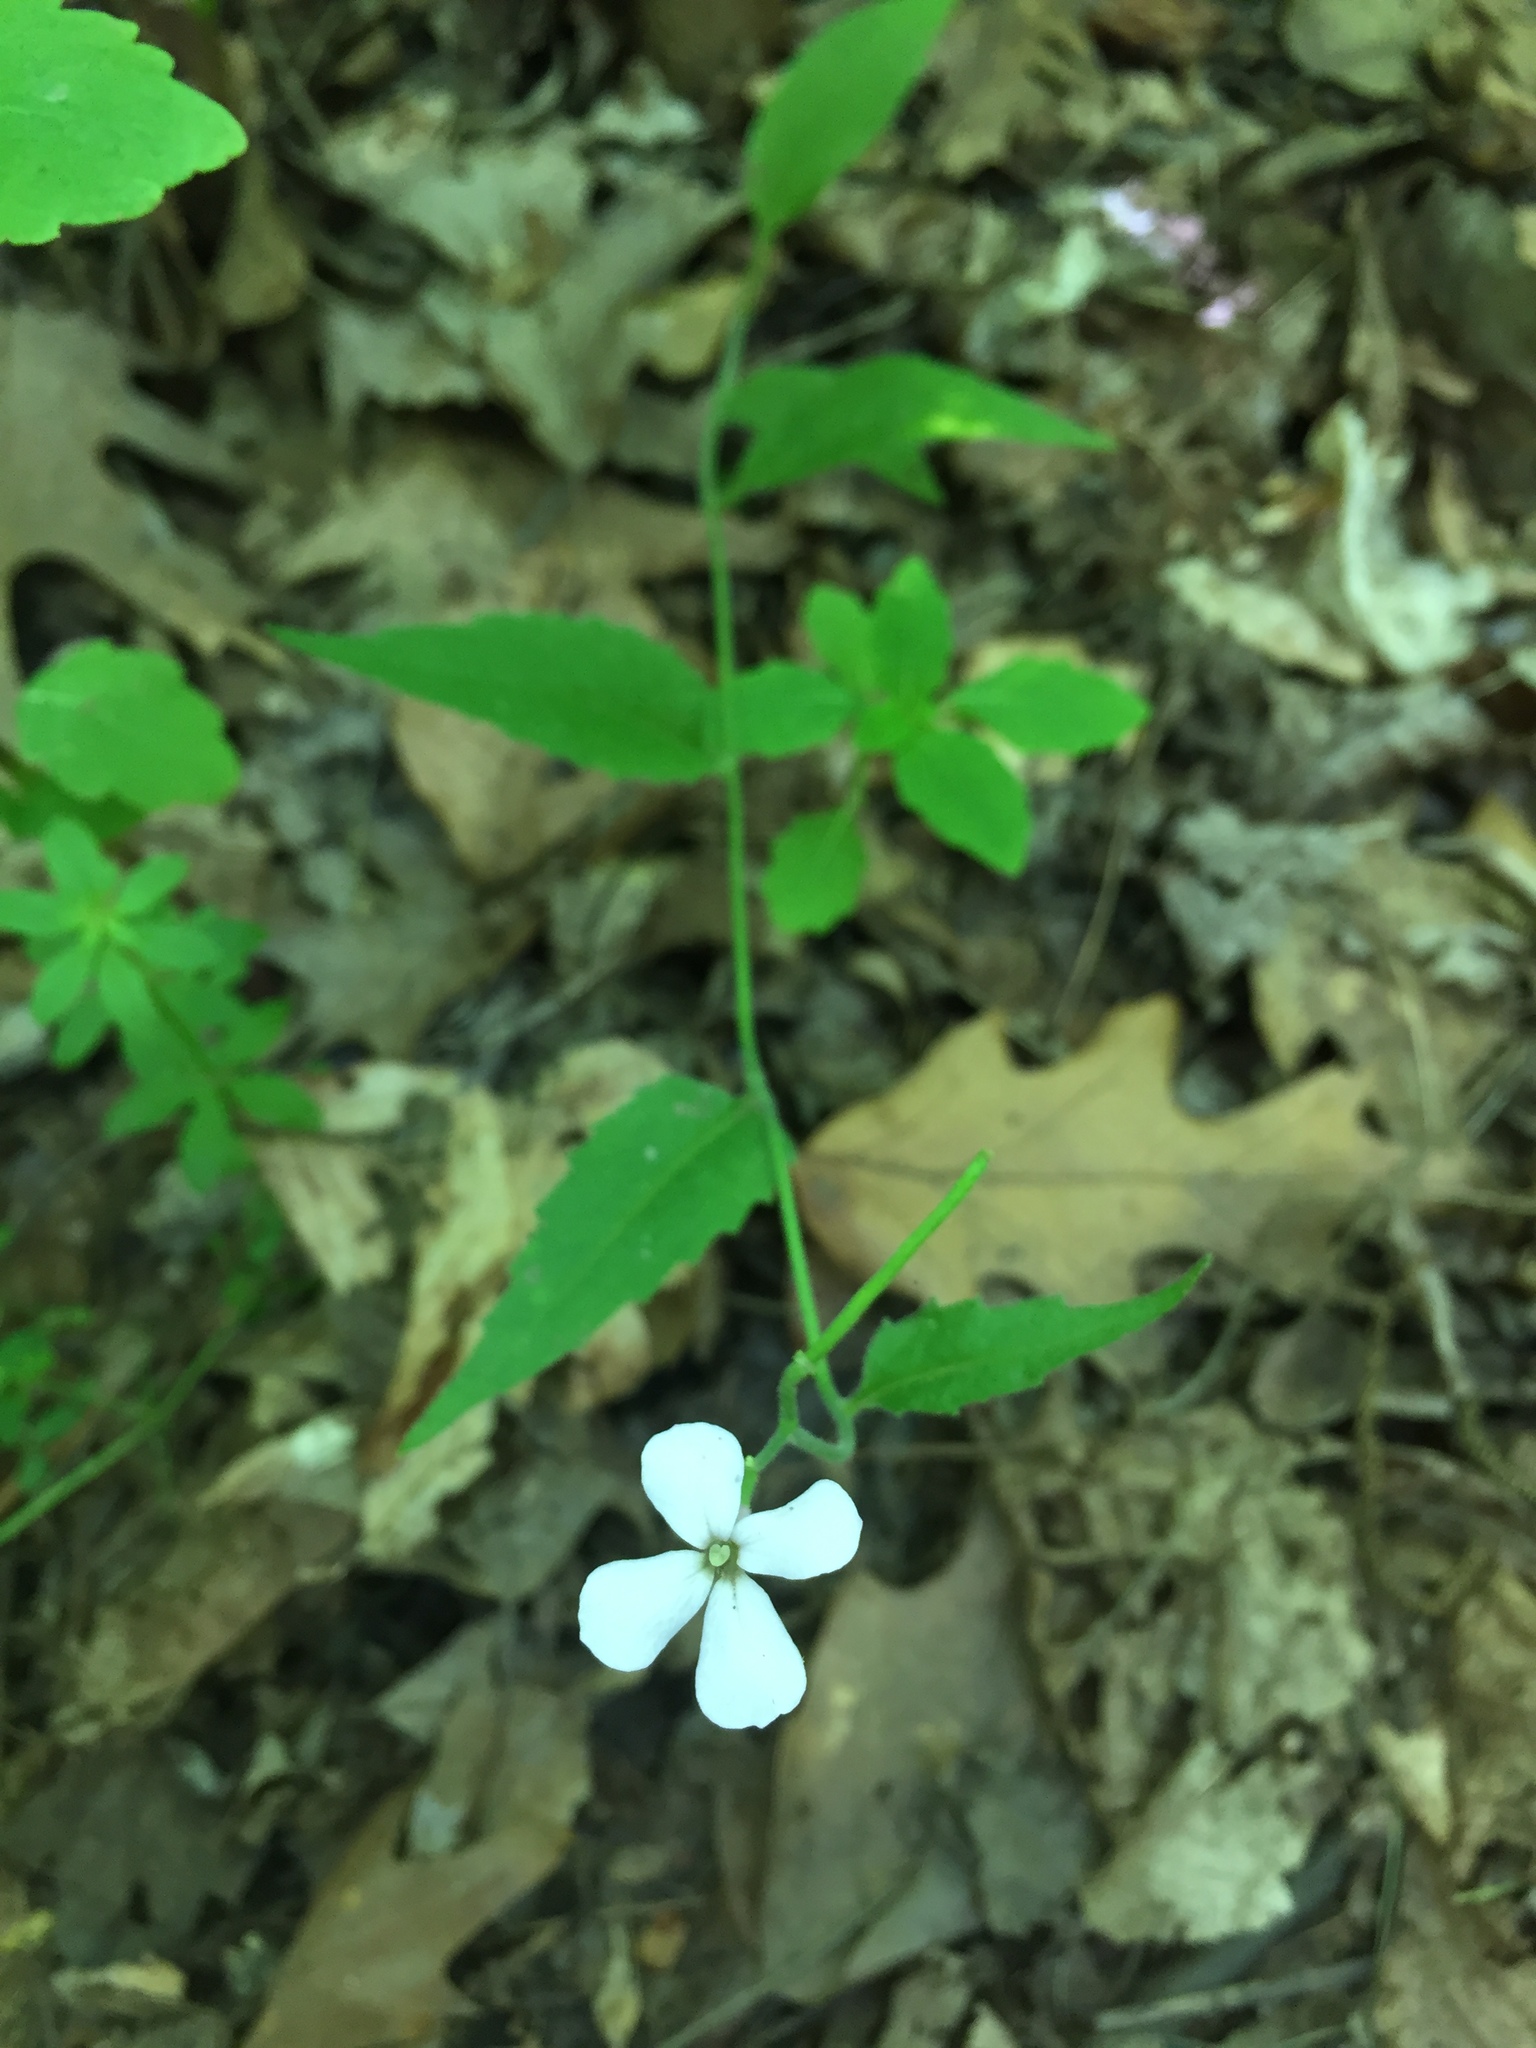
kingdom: Plantae
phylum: Tracheophyta
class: Magnoliopsida
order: Brassicales
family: Brassicaceae
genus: Hesperis
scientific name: Hesperis matronalis
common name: Dame's-violet
